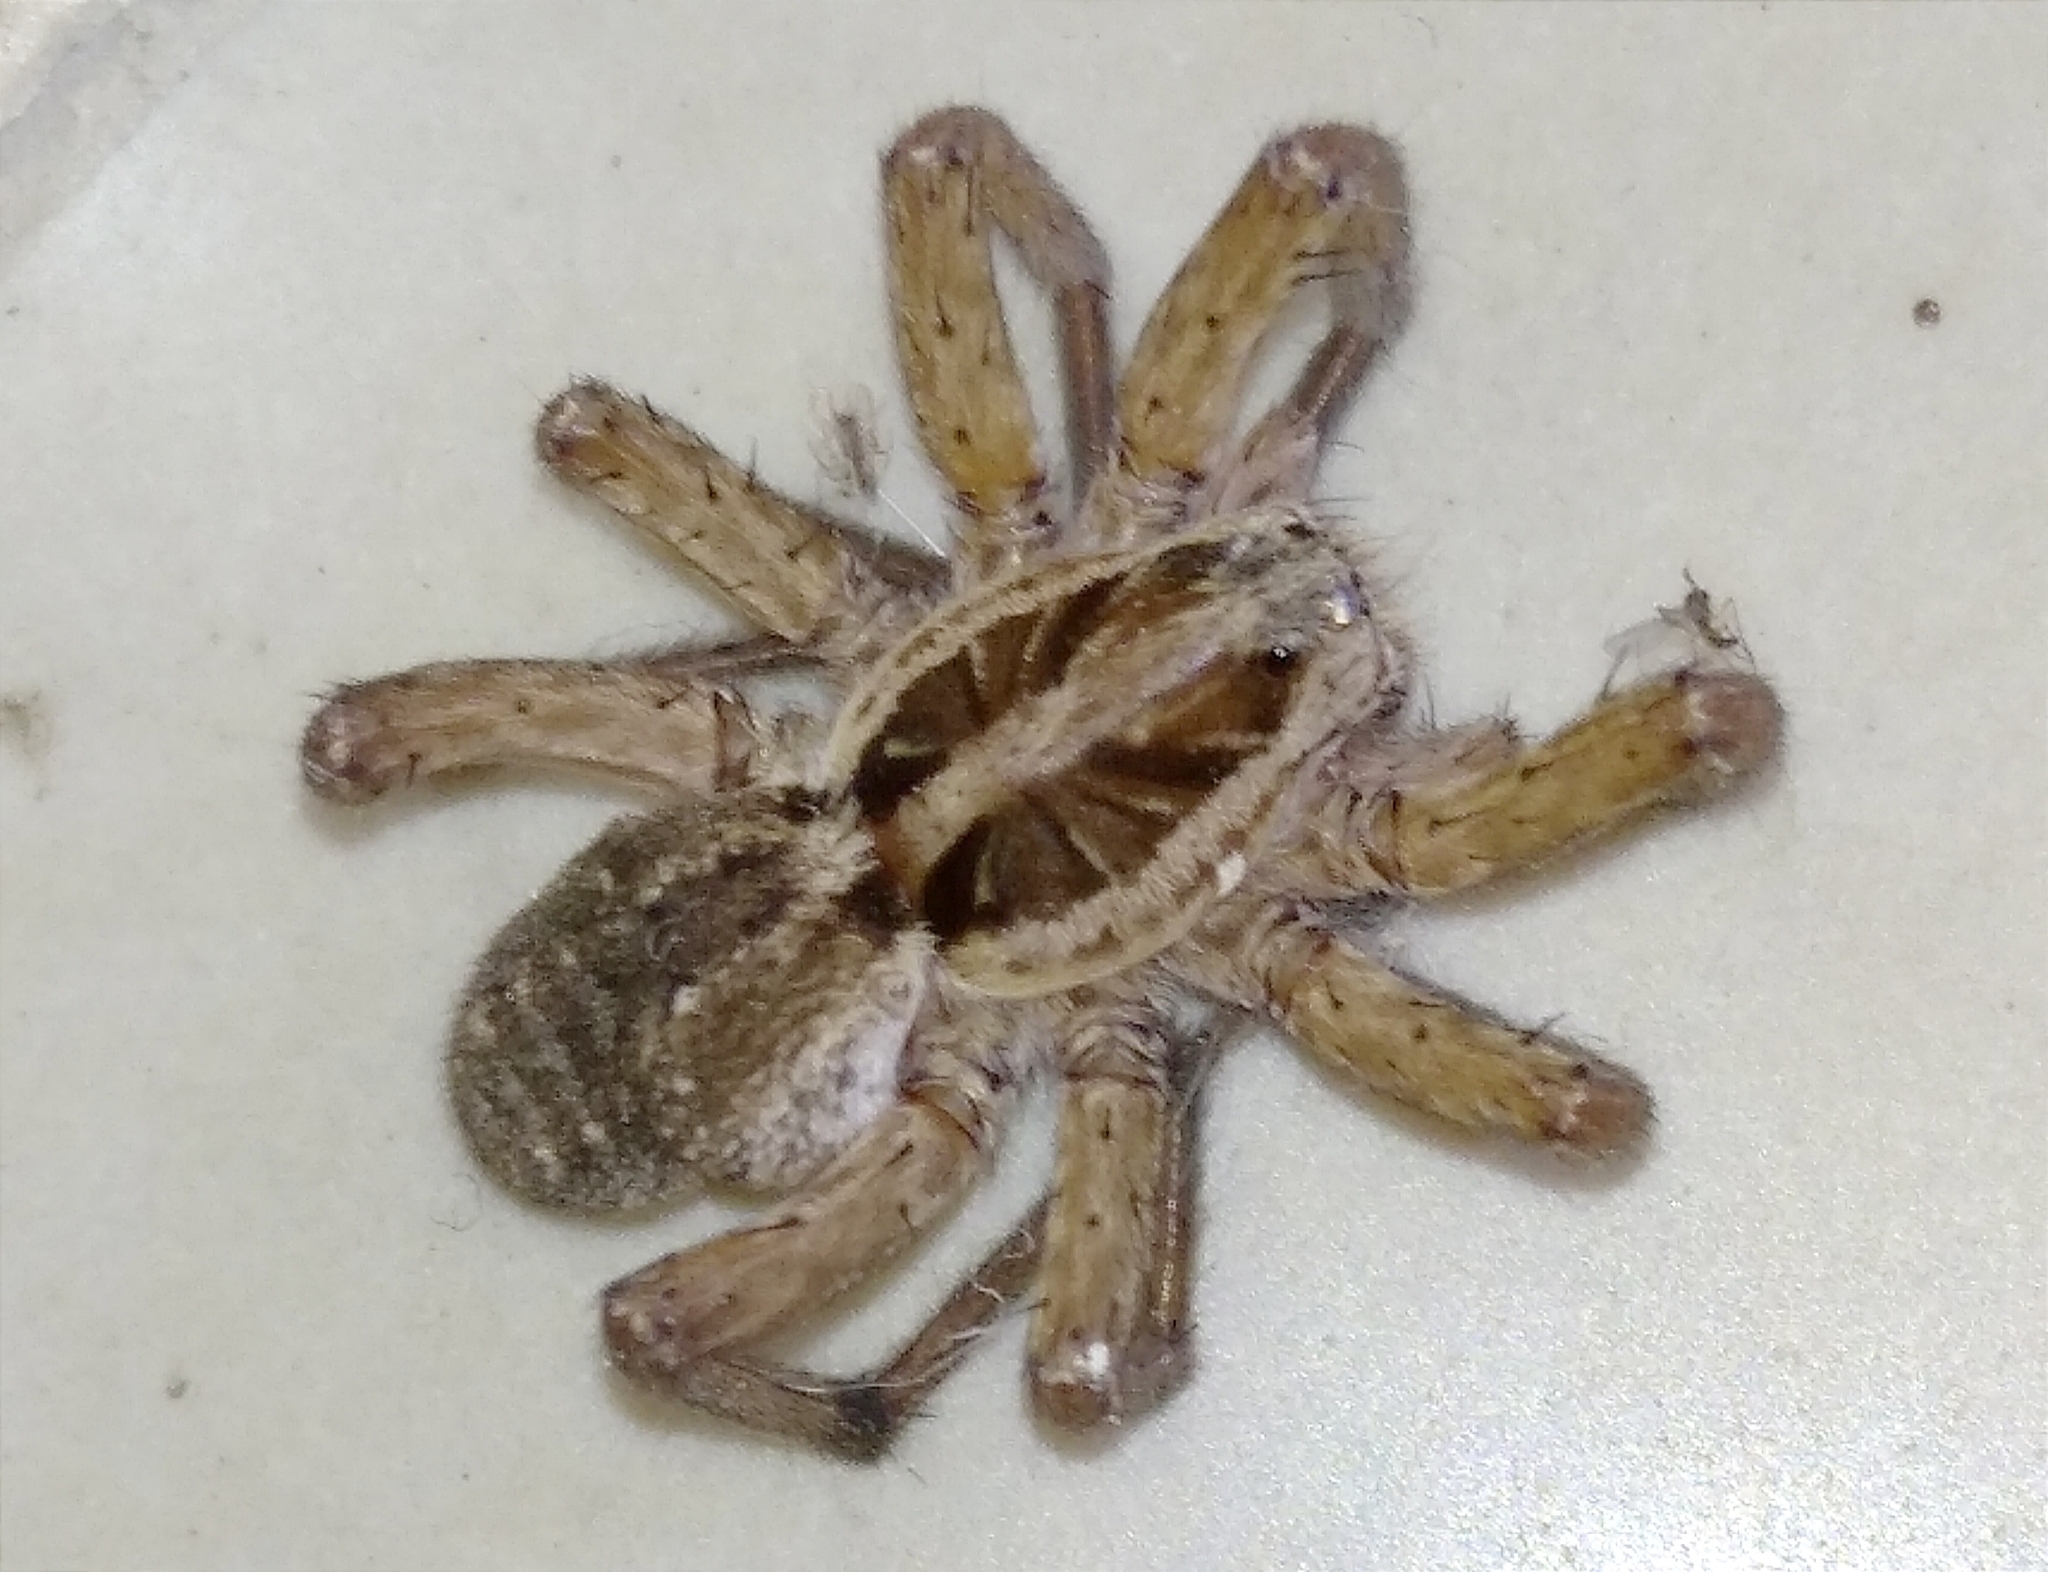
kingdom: Animalia
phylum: Arthropoda
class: Arachnida
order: Araneae
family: Lycosidae
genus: Hogna
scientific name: Hogna radiata
